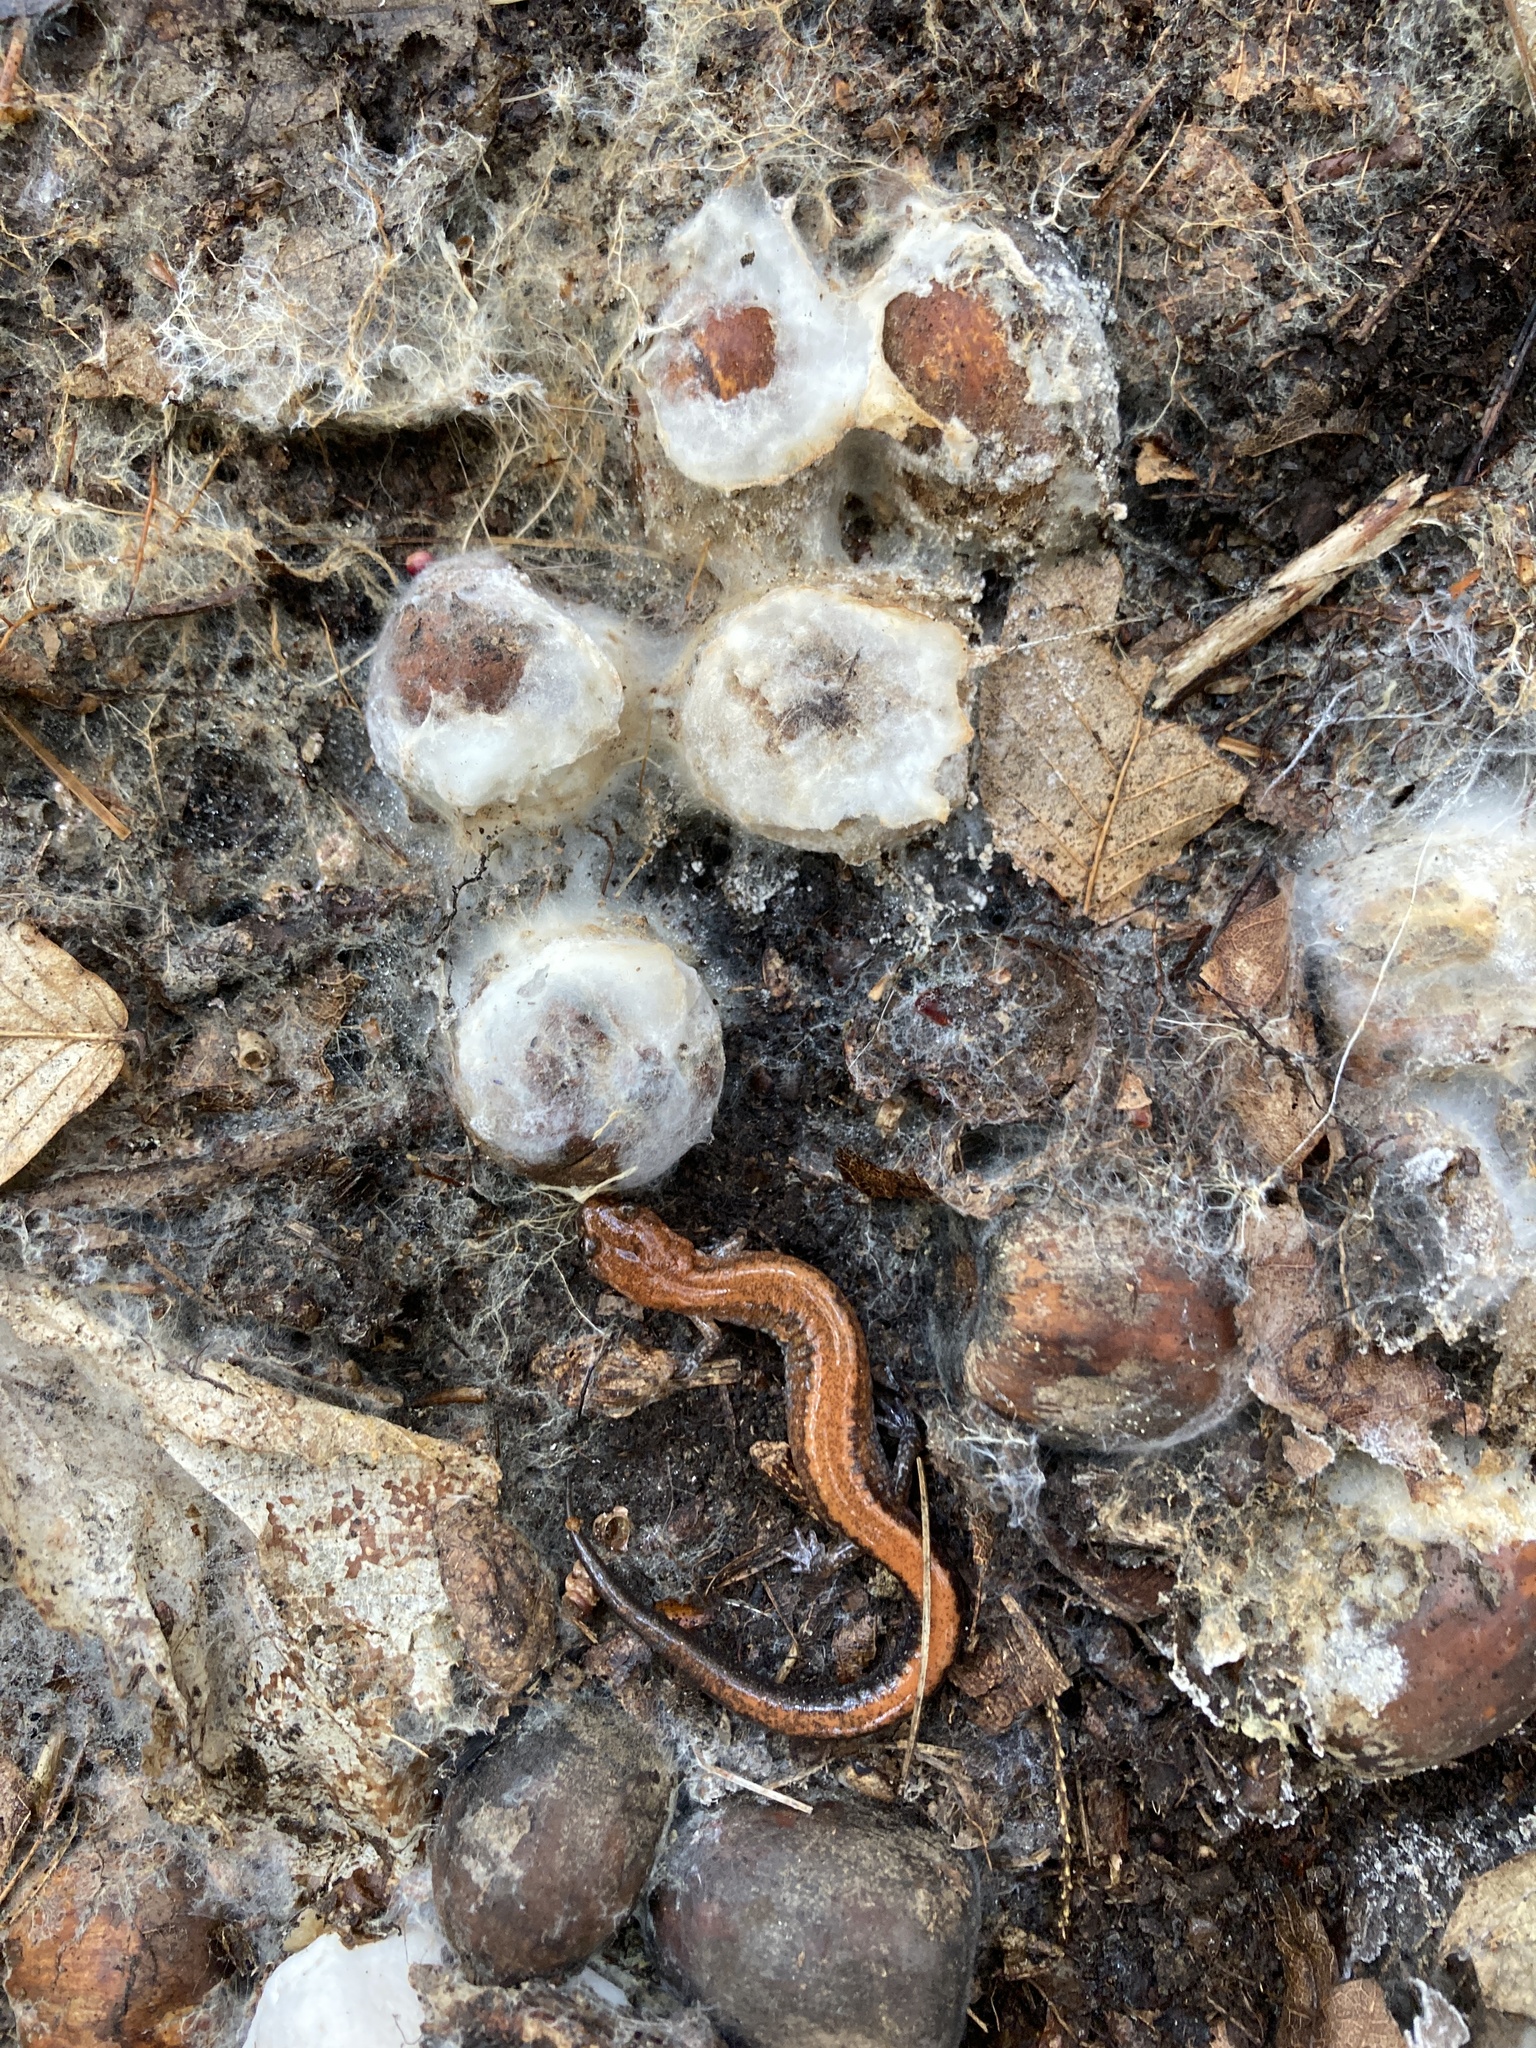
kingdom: Animalia
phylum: Chordata
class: Amphibia
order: Caudata
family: Plethodontidae
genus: Plethodon
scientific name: Plethodon cinereus
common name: Redback salamander
